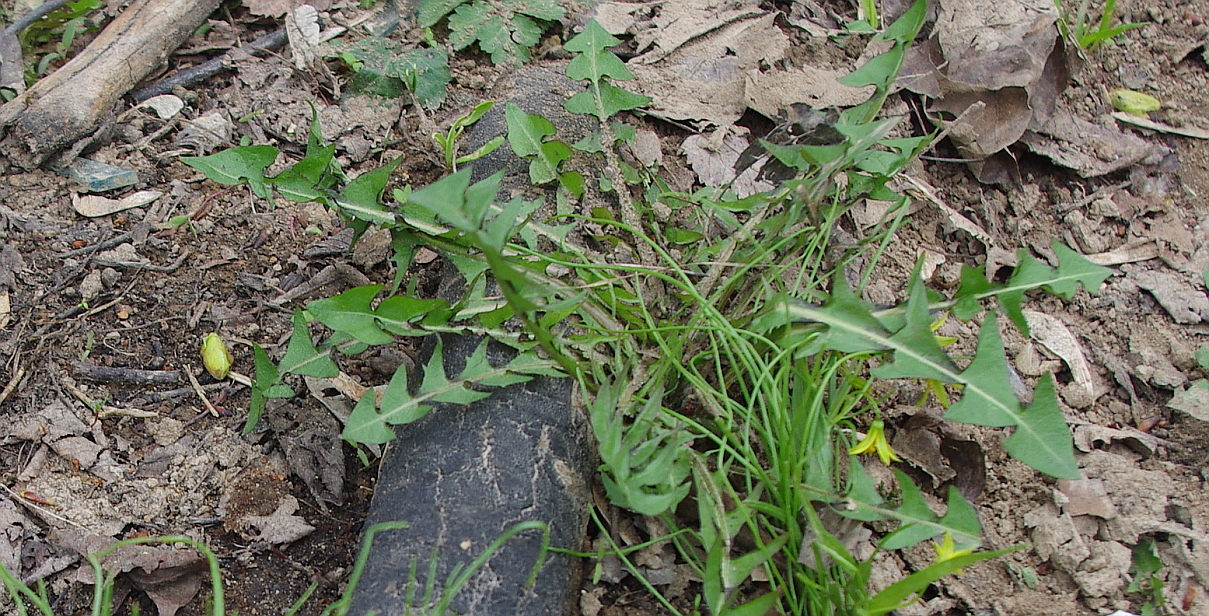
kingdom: Plantae
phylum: Tracheophyta
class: Magnoliopsida
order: Asterales
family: Asteraceae
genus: Taraxacum
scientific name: Taraxacum officinale
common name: Common dandelion
